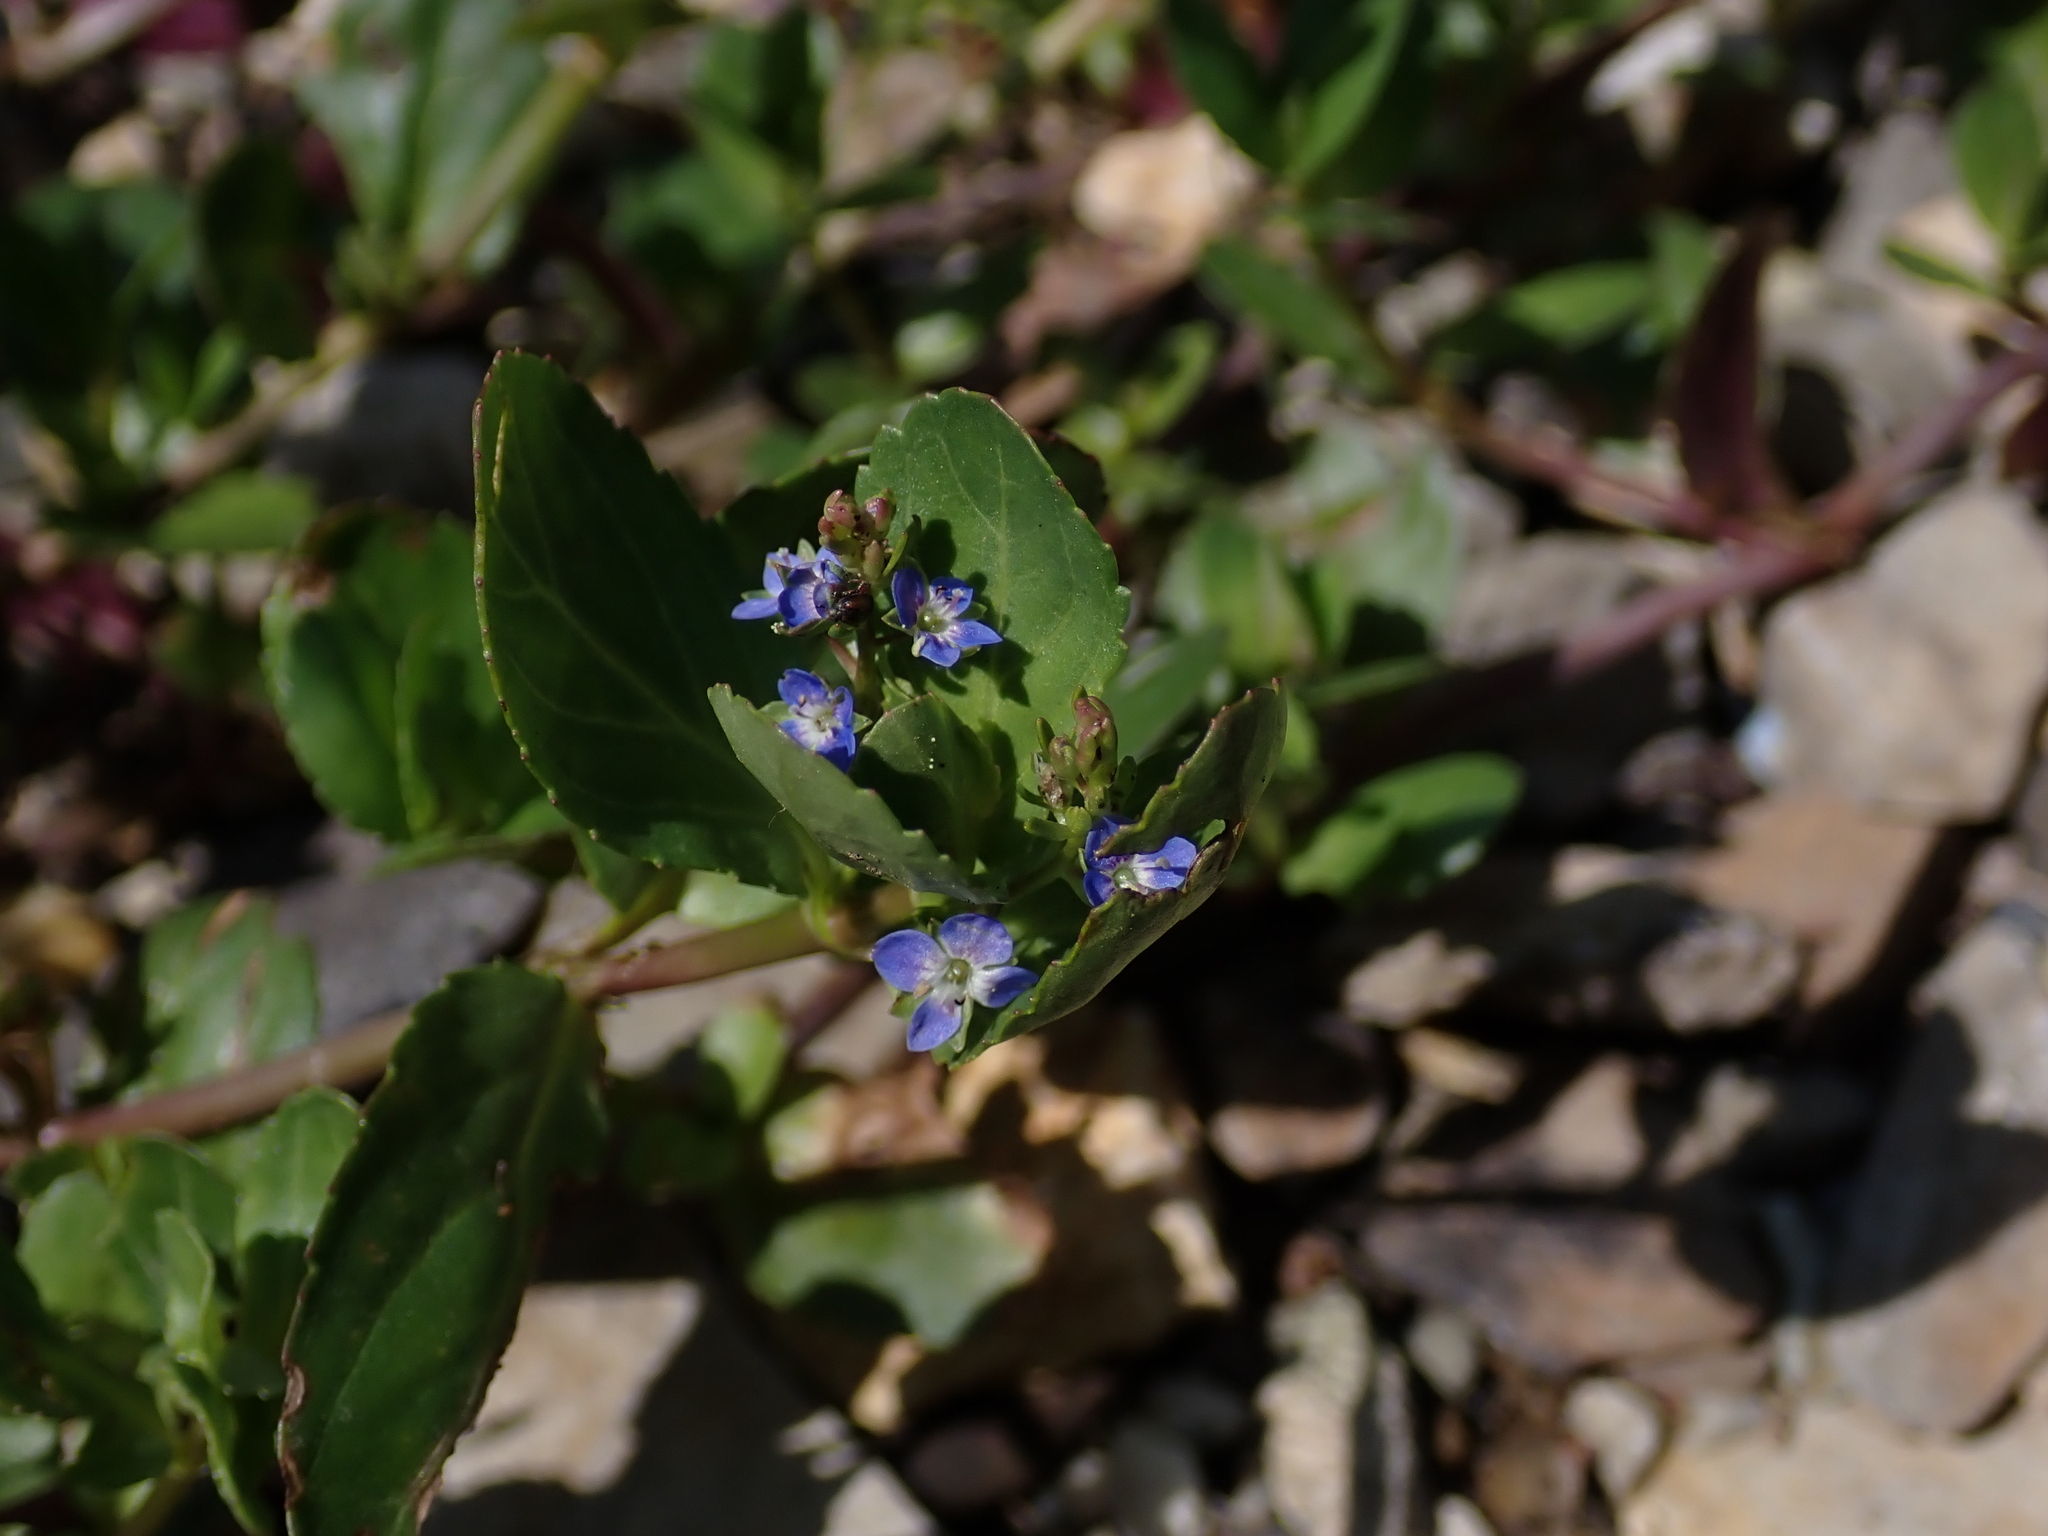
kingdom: Plantae
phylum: Tracheophyta
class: Magnoliopsida
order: Lamiales
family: Plantaginaceae
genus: Veronica
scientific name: Veronica beccabunga
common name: Brooklime
